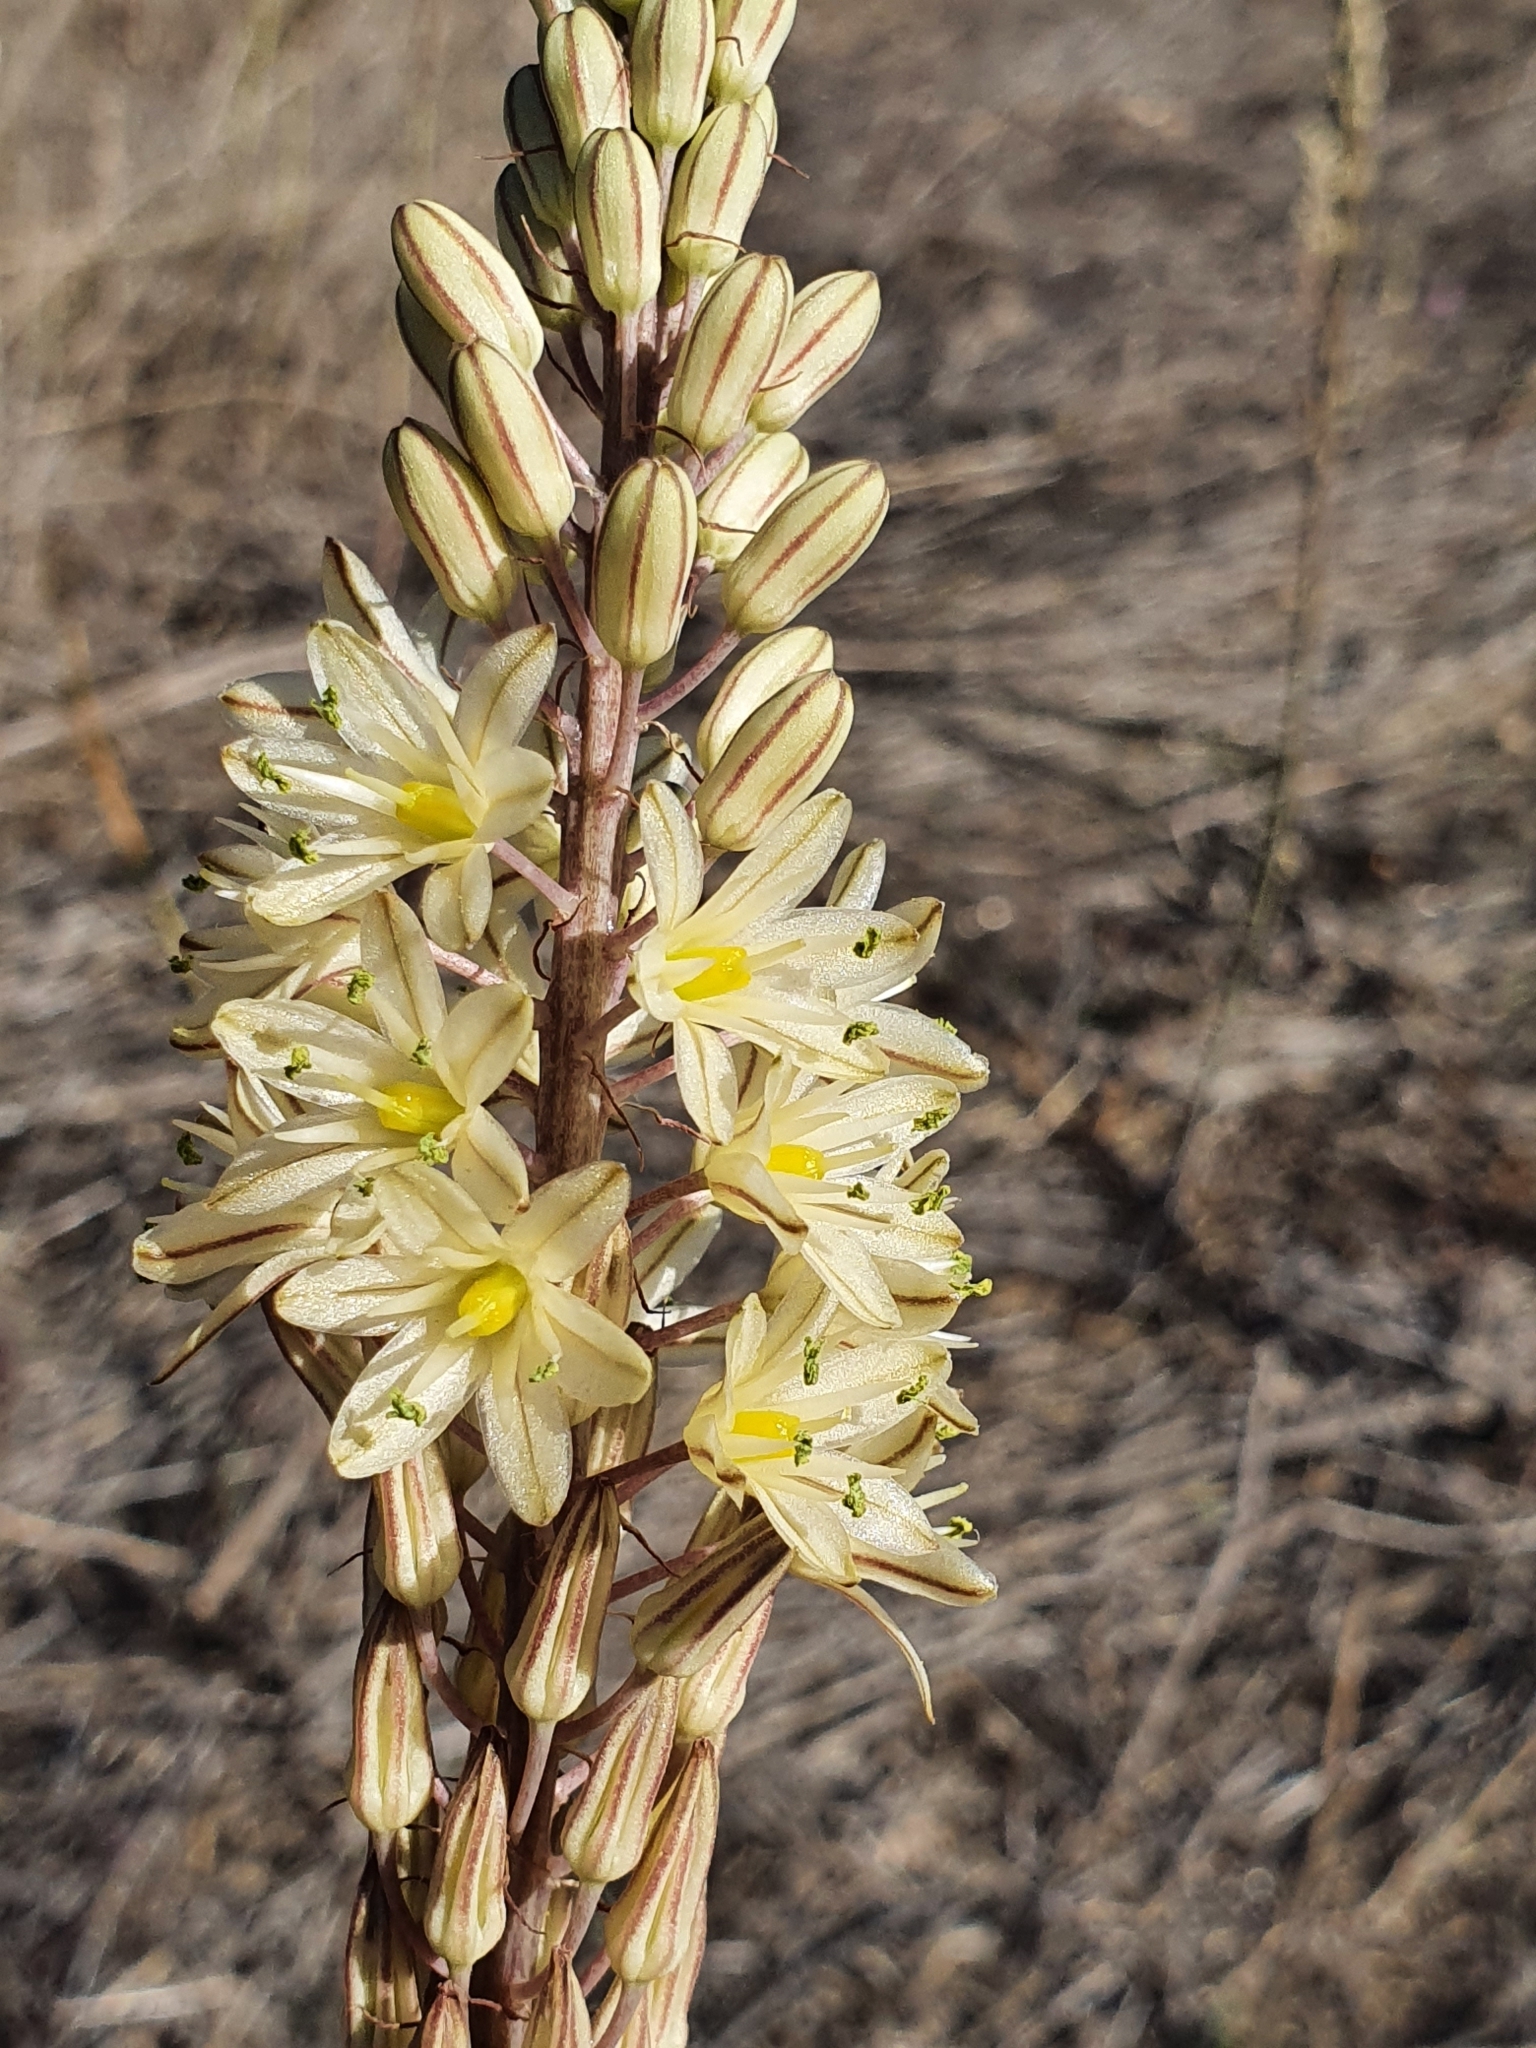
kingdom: Plantae
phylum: Tracheophyta
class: Liliopsida
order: Asparagales
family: Asparagaceae
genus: Drimia
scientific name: Drimia anthericoides
